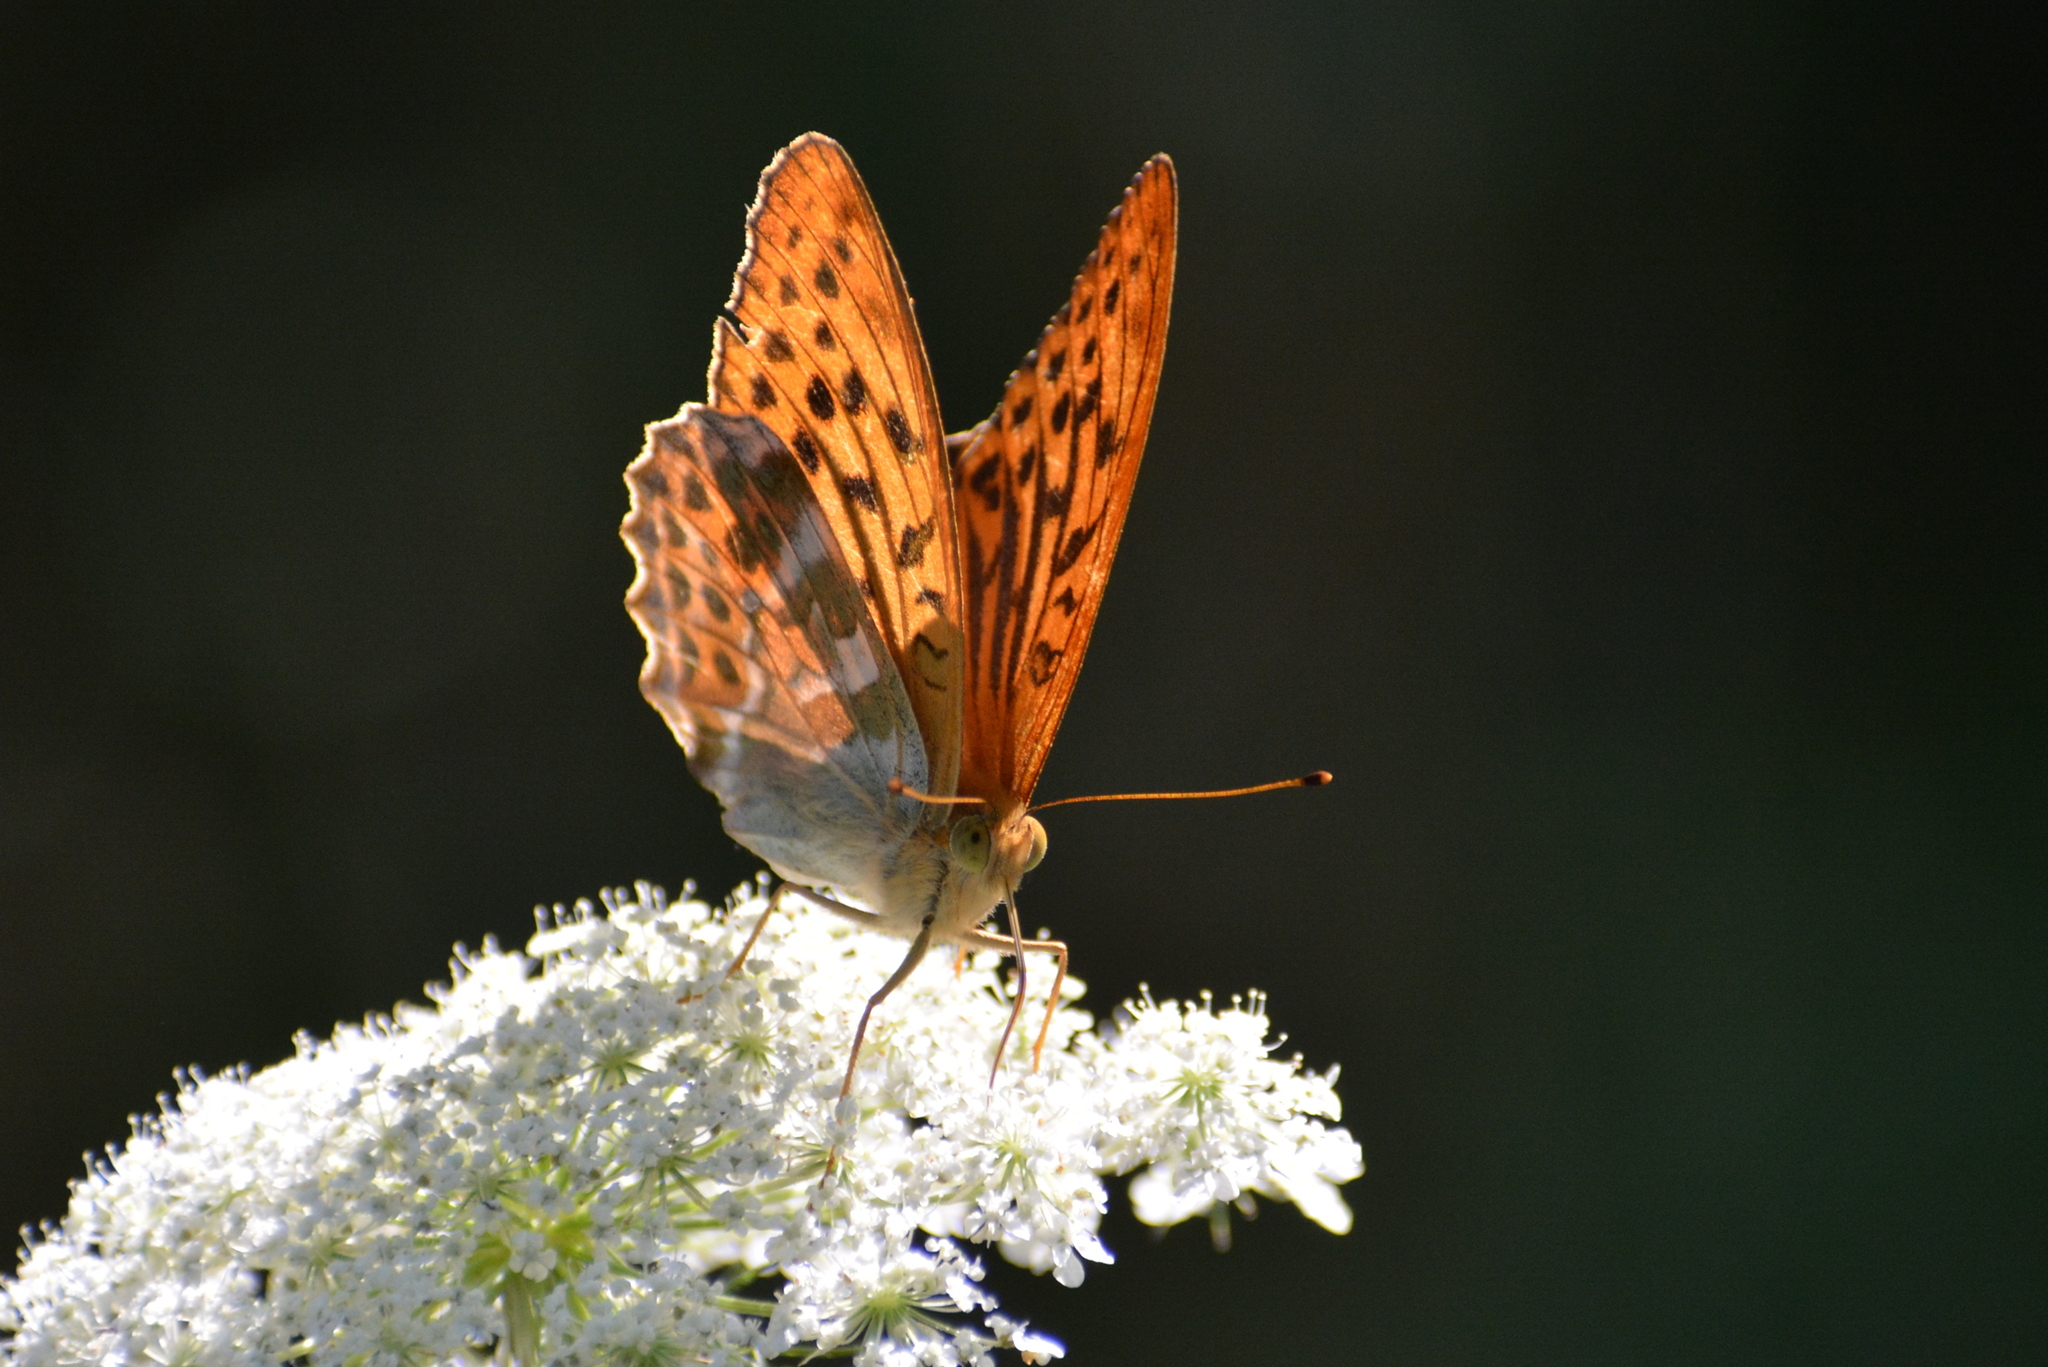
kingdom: Animalia
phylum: Arthropoda
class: Insecta
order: Lepidoptera
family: Nymphalidae
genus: Argynnis
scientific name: Argynnis paphia
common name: Silver-washed fritillary
